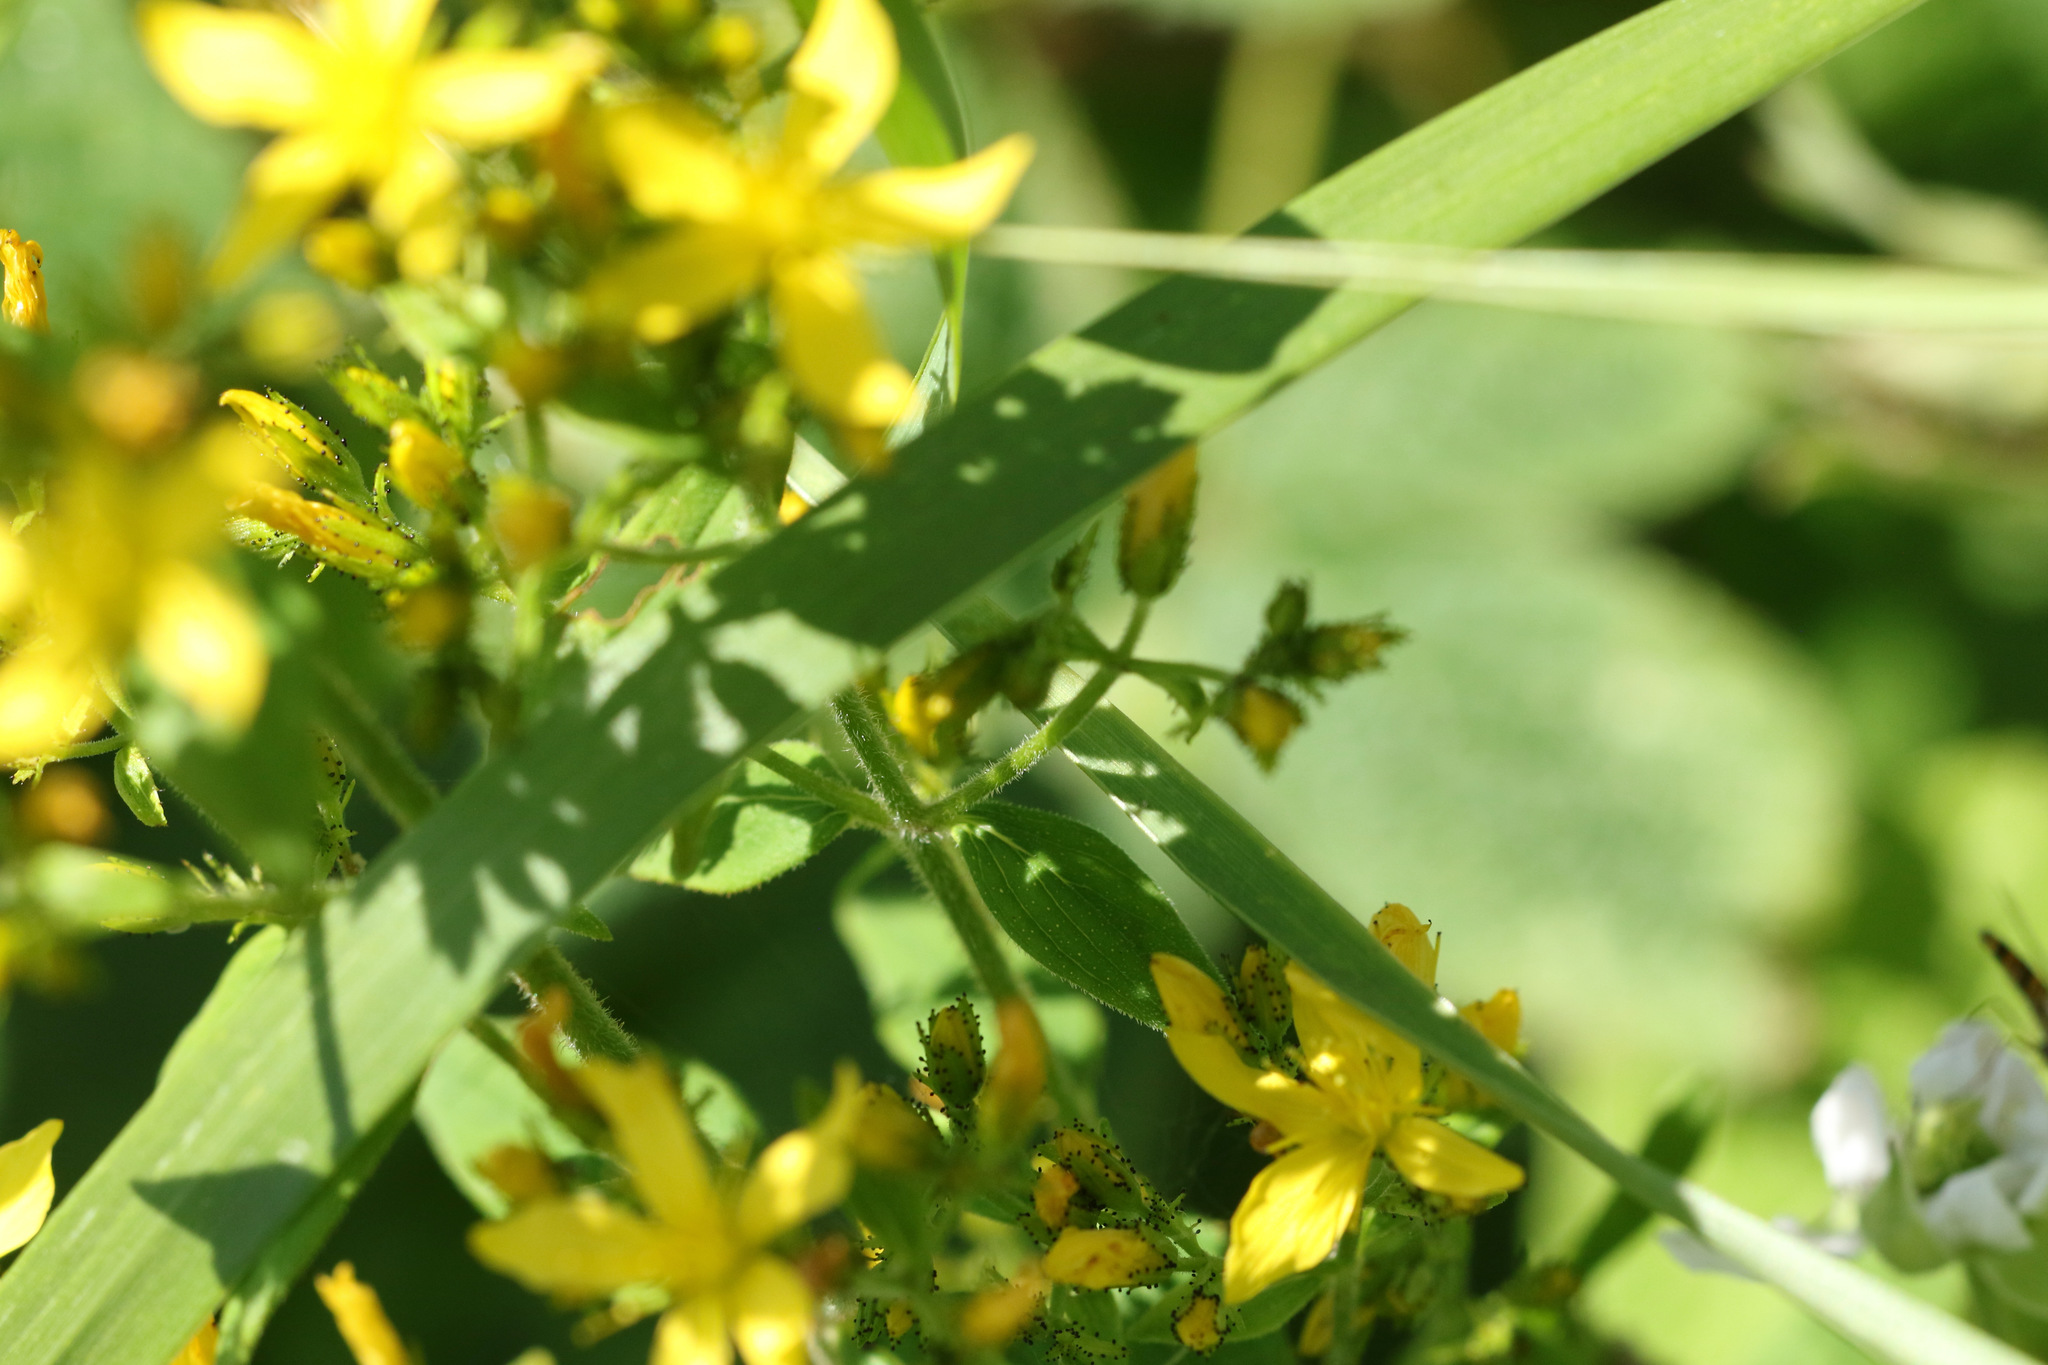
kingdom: Plantae
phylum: Tracheophyta
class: Magnoliopsida
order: Malpighiales
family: Hypericaceae
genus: Hypericum
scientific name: Hypericum hirsutum
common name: Hairy st. john's-wort
